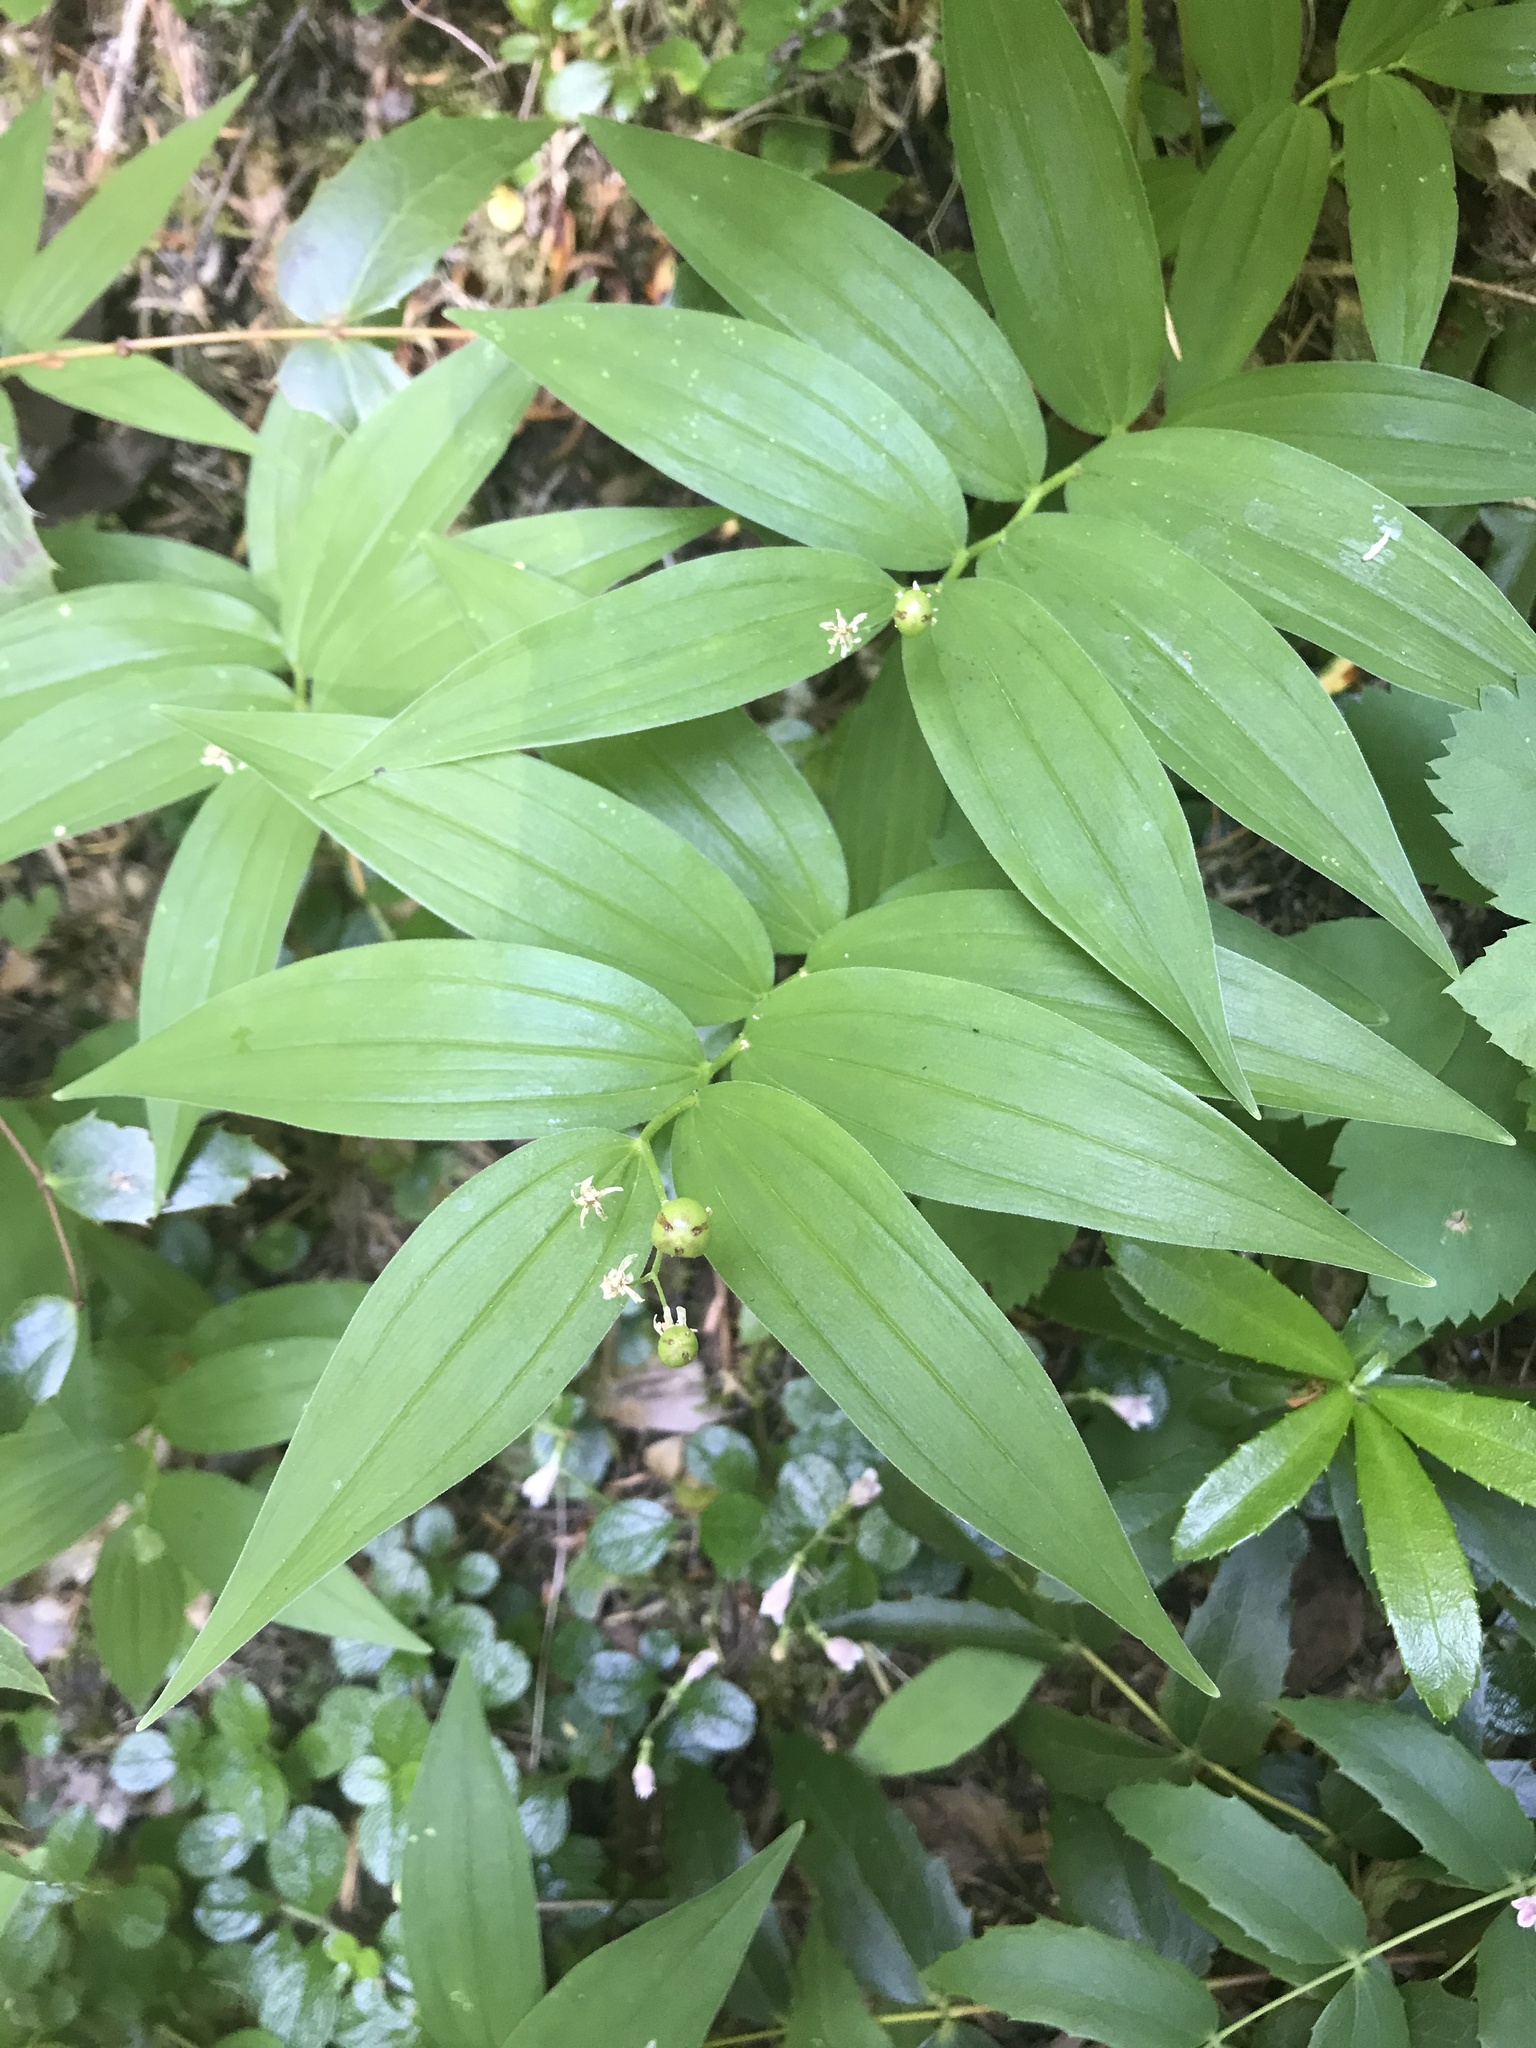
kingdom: Plantae
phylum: Tracheophyta
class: Liliopsida
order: Asparagales
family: Asparagaceae
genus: Maianthemum
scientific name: Maianthemum stellatum
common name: Little false solomon's seal
